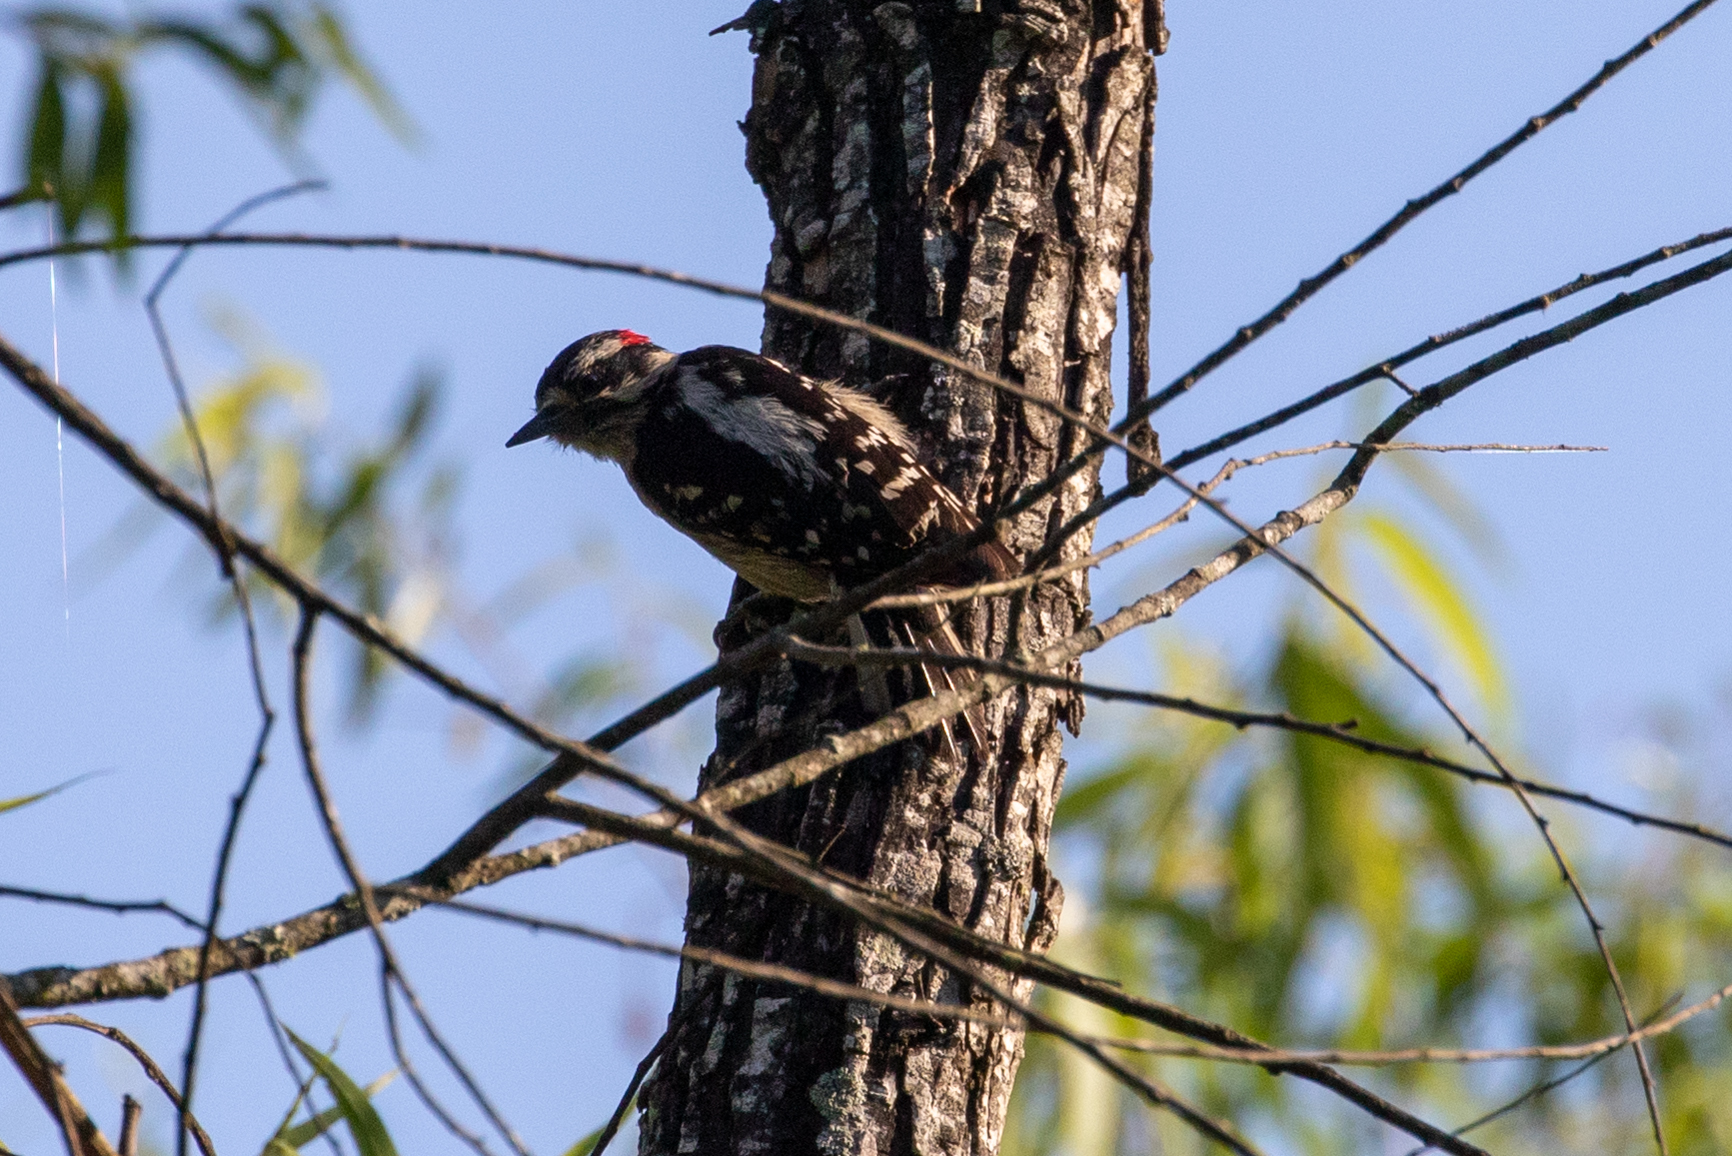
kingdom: Animalia
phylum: Chordata
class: Aves
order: Piciformes
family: Picidae
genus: Dryobates
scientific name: Dryobates pubescens
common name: Downy woodpecker
